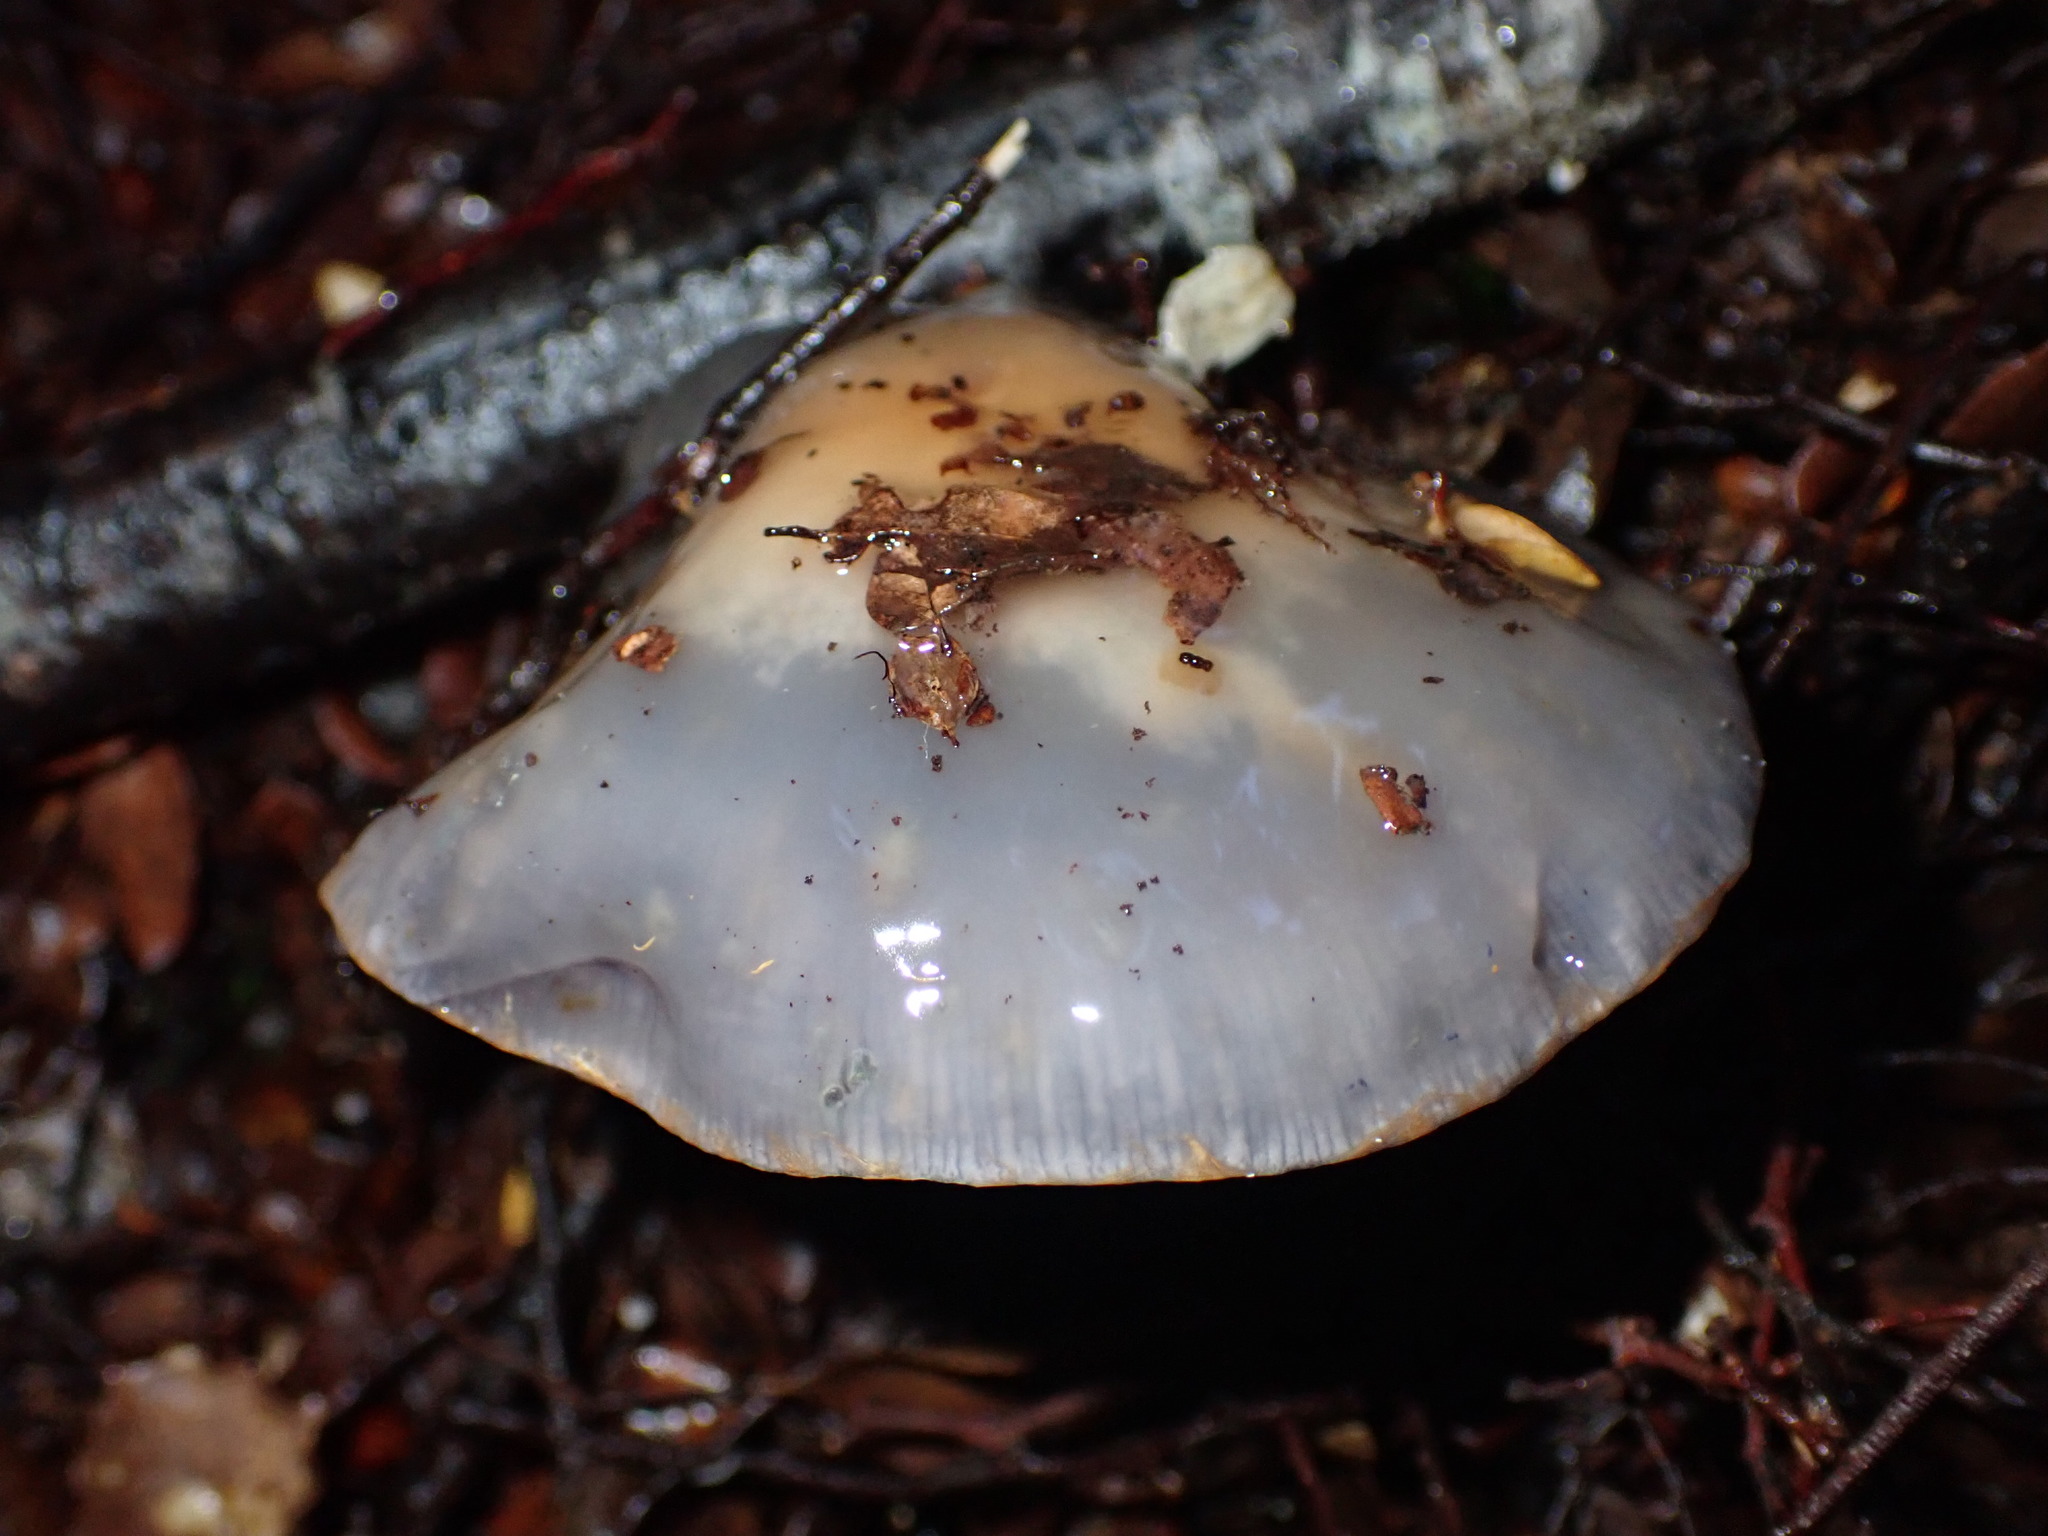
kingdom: Fungi
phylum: Basidiomycota
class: Agaricomycetes
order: Agaricales
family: Cortinariaceae
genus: Cortinarius
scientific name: Cortinarius taylorianus
